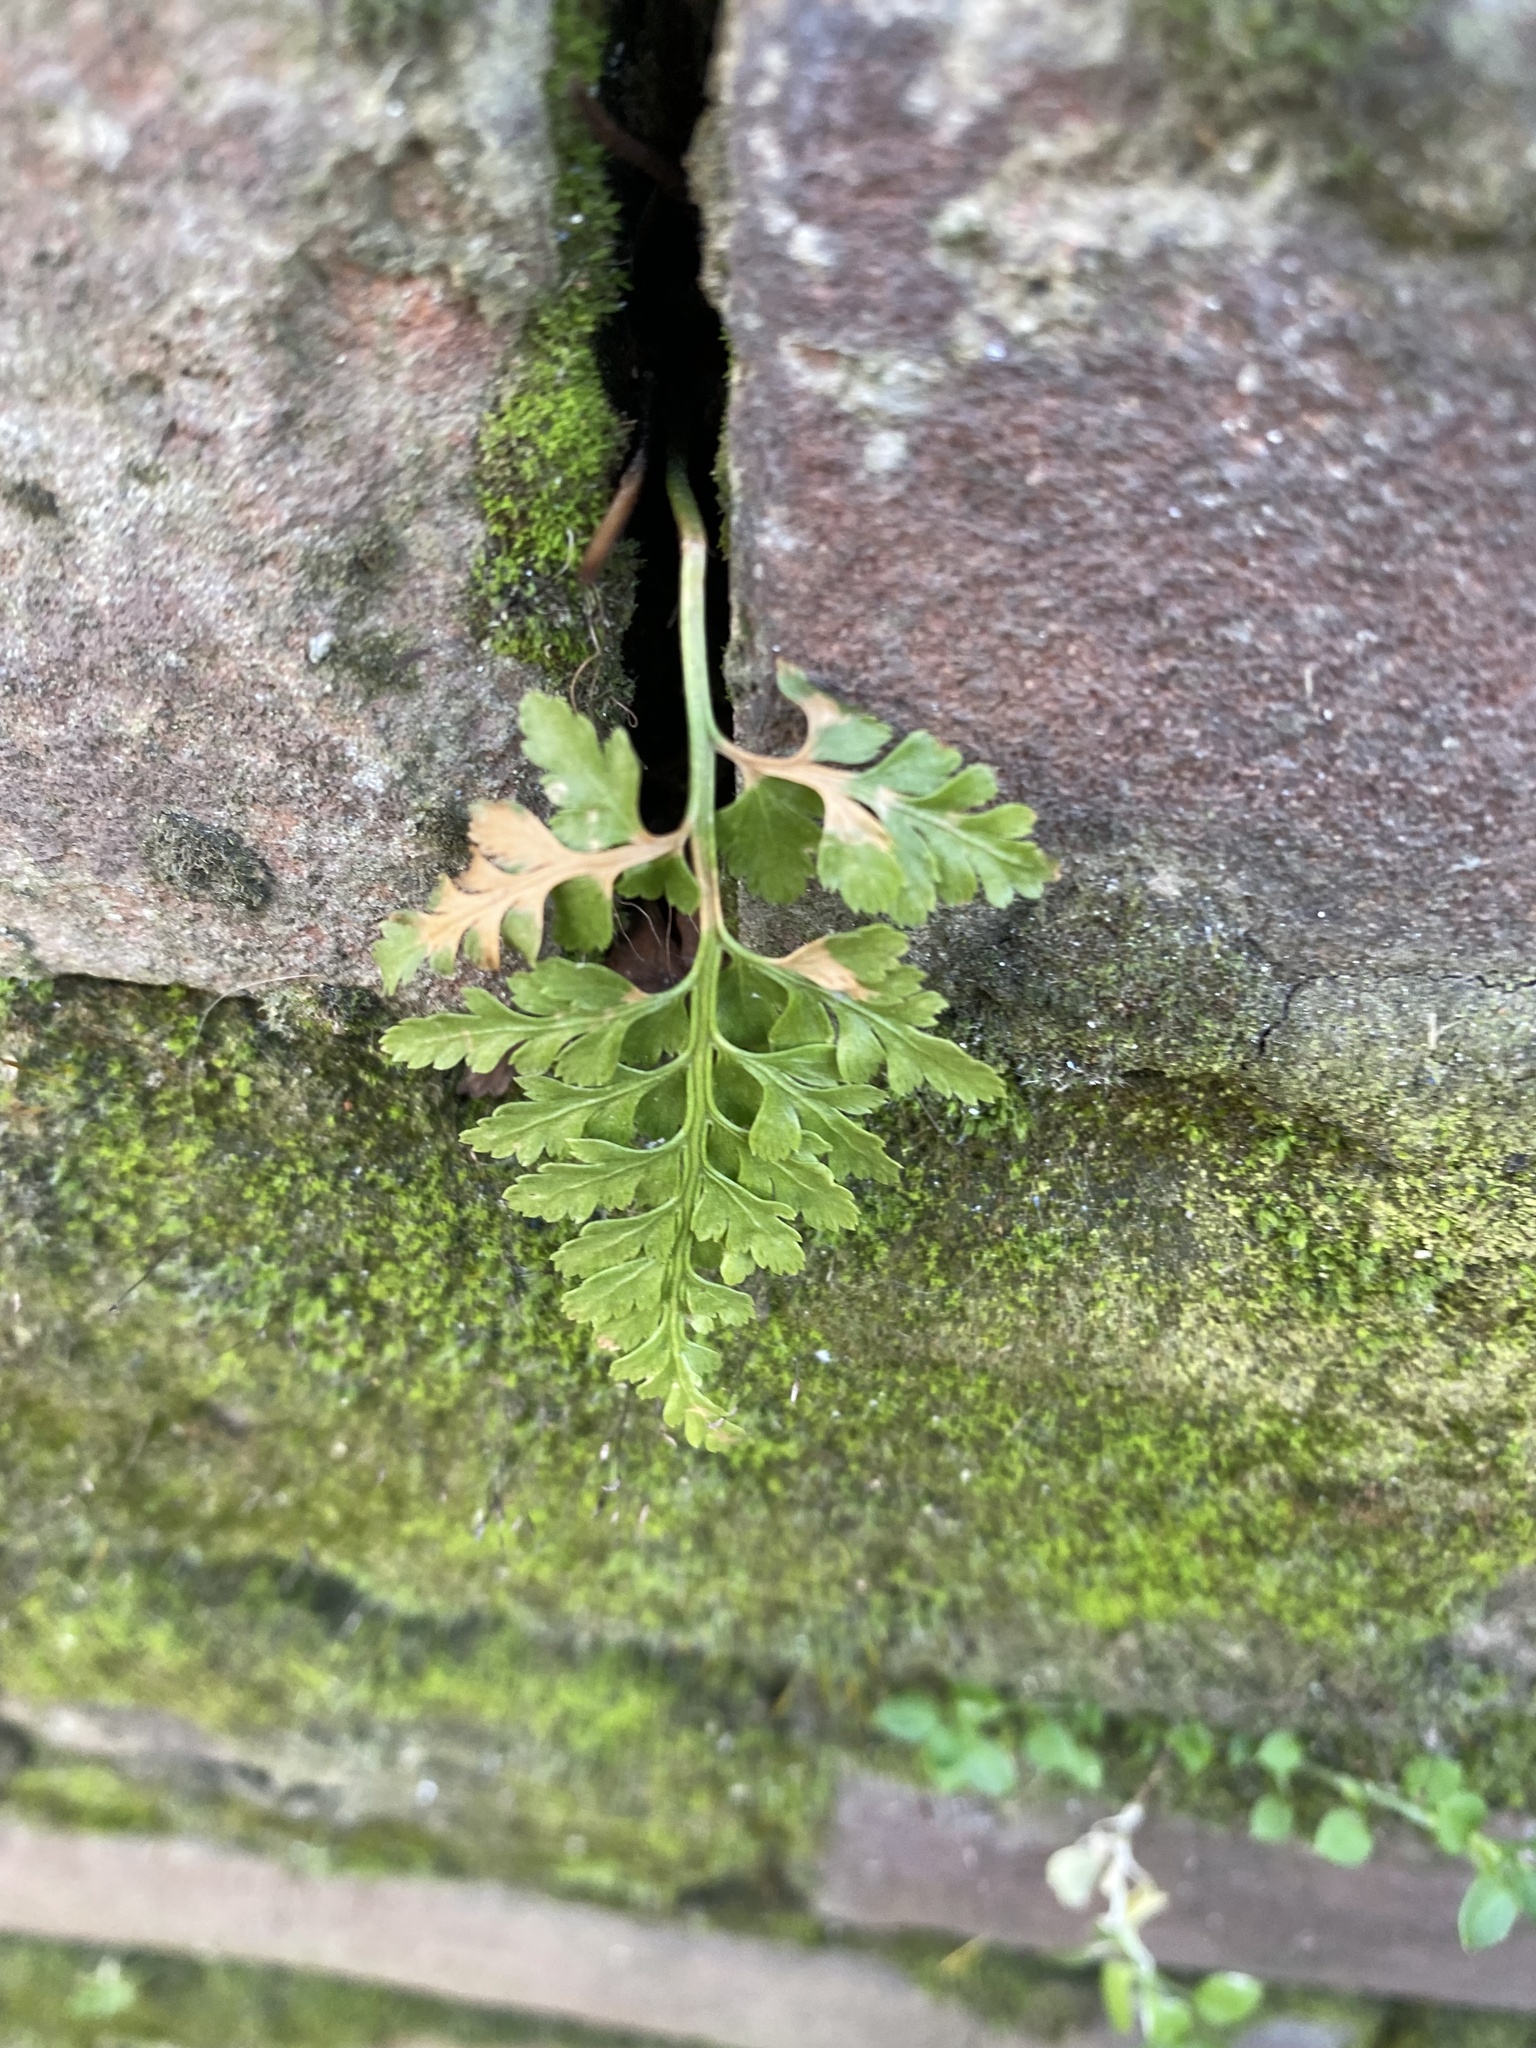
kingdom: Plantae
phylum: Tracheophyta
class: Polypodiopsida
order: Polypodiales
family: Aspleniaceae
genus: Asplenium
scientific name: Asplenium adiantum-nigrum
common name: Black spleenwort
